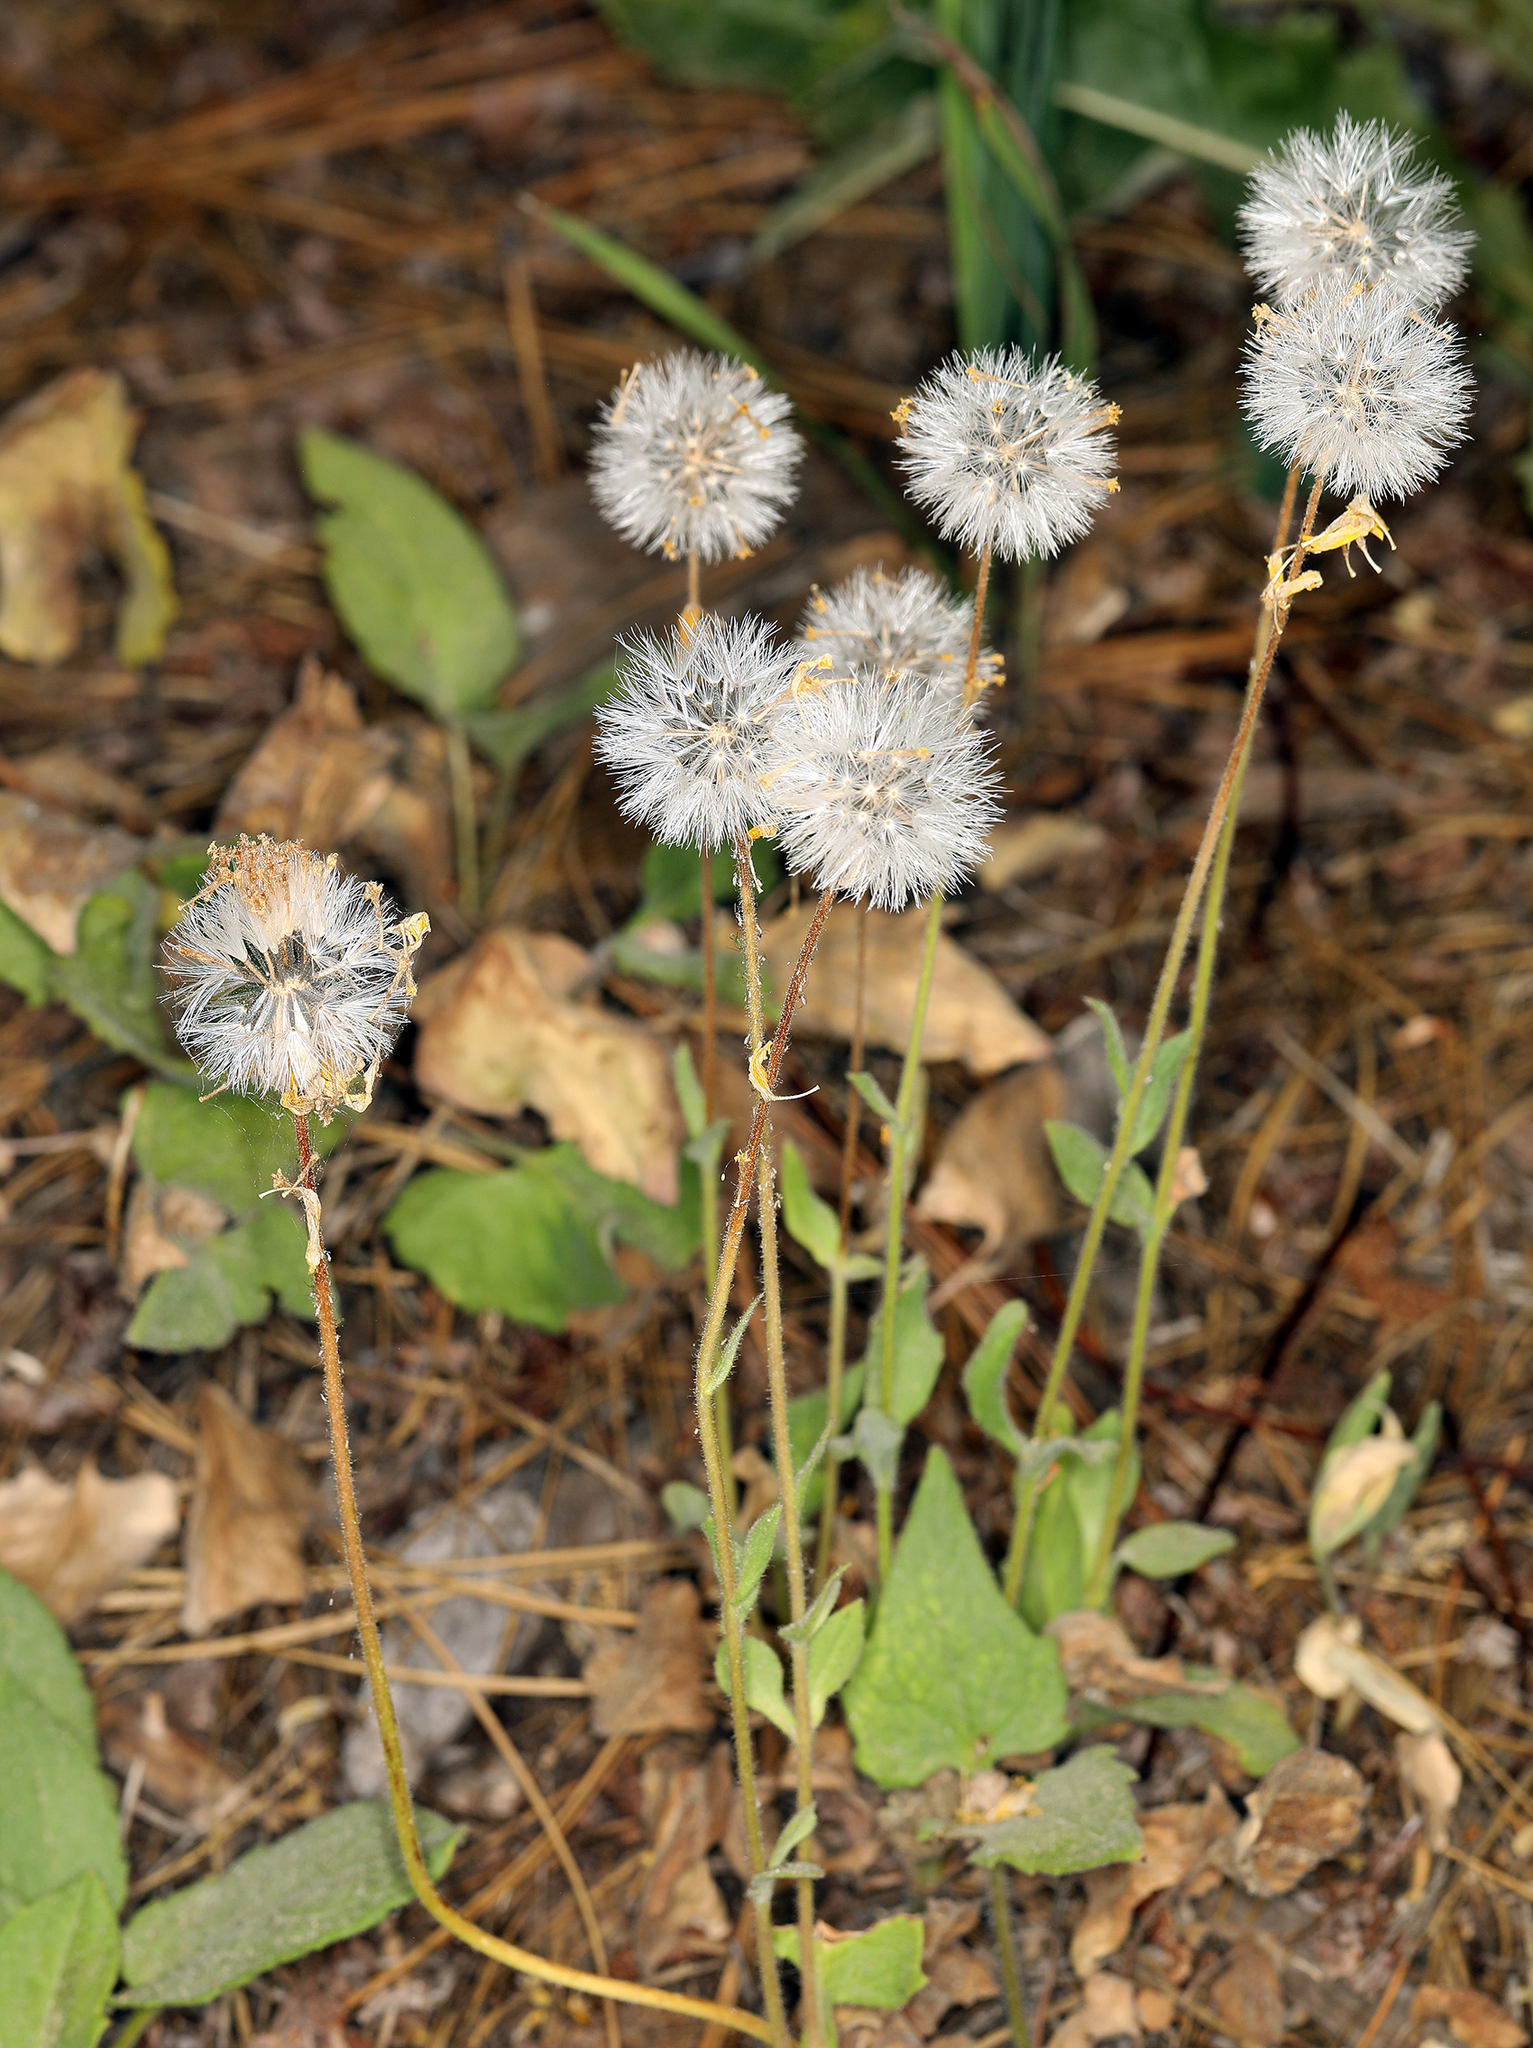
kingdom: Plantae
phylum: Tracheophyta
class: Magnoliopsida
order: Asterales
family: Asteraceae
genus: Arnica
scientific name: Arnica cordifolia
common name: Heart-leaf arnica
